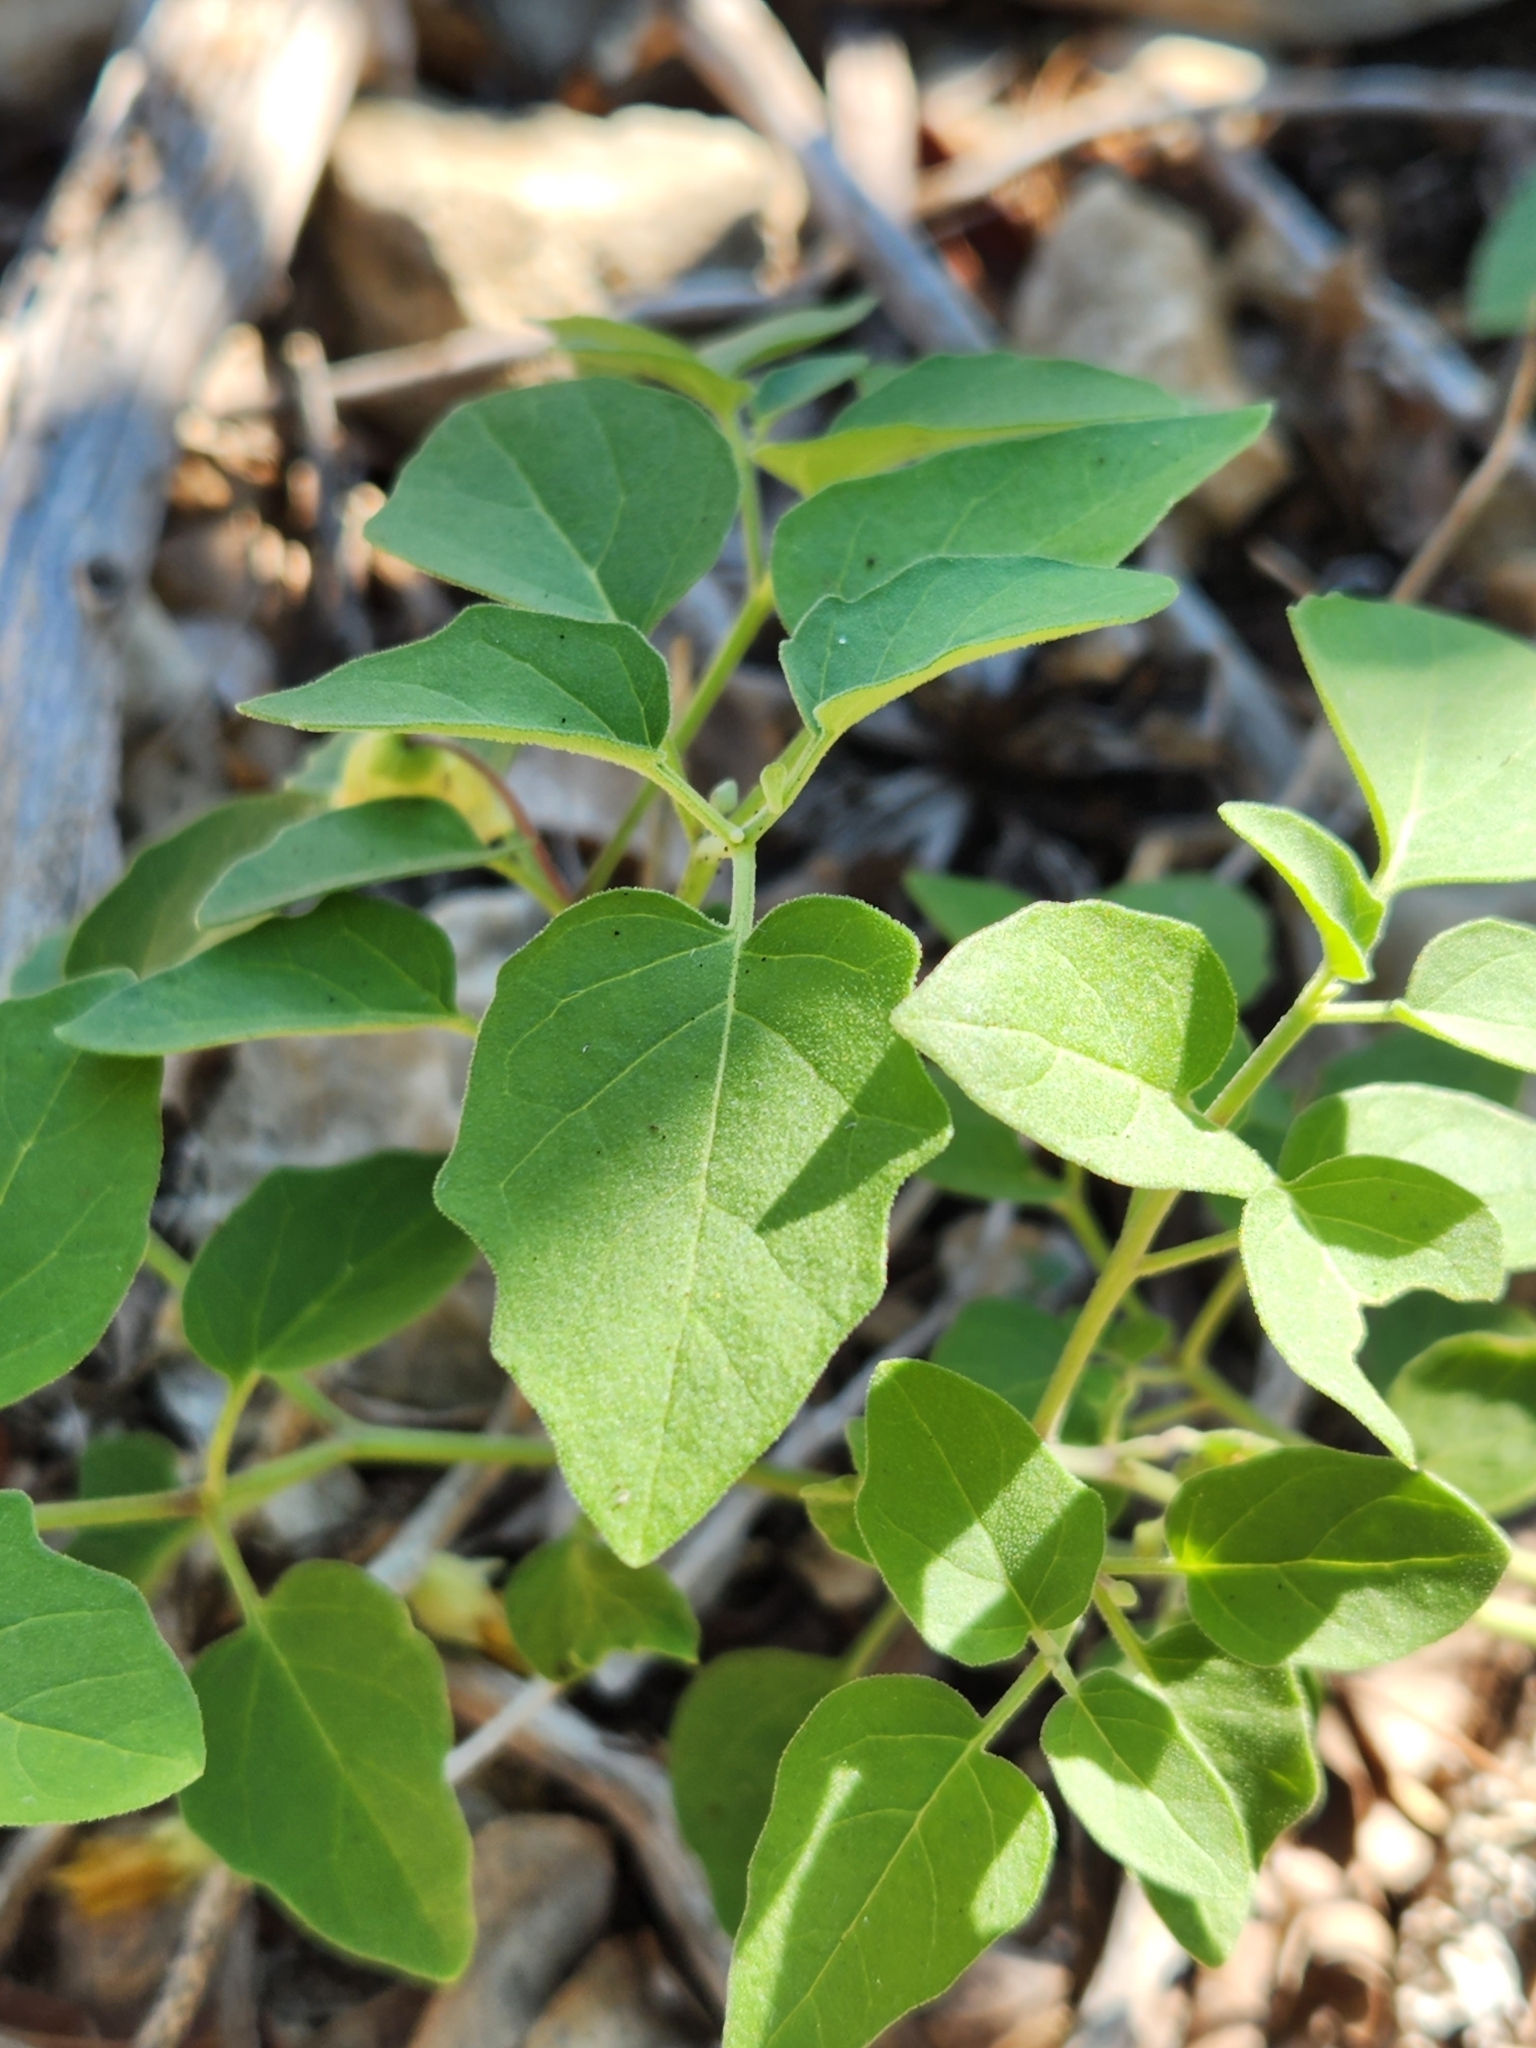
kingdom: Plantae
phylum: Tracheophyta
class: Magnoliopsida
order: Solanales
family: Solanaceae
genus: Physalis
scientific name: Physalis cinerascens
